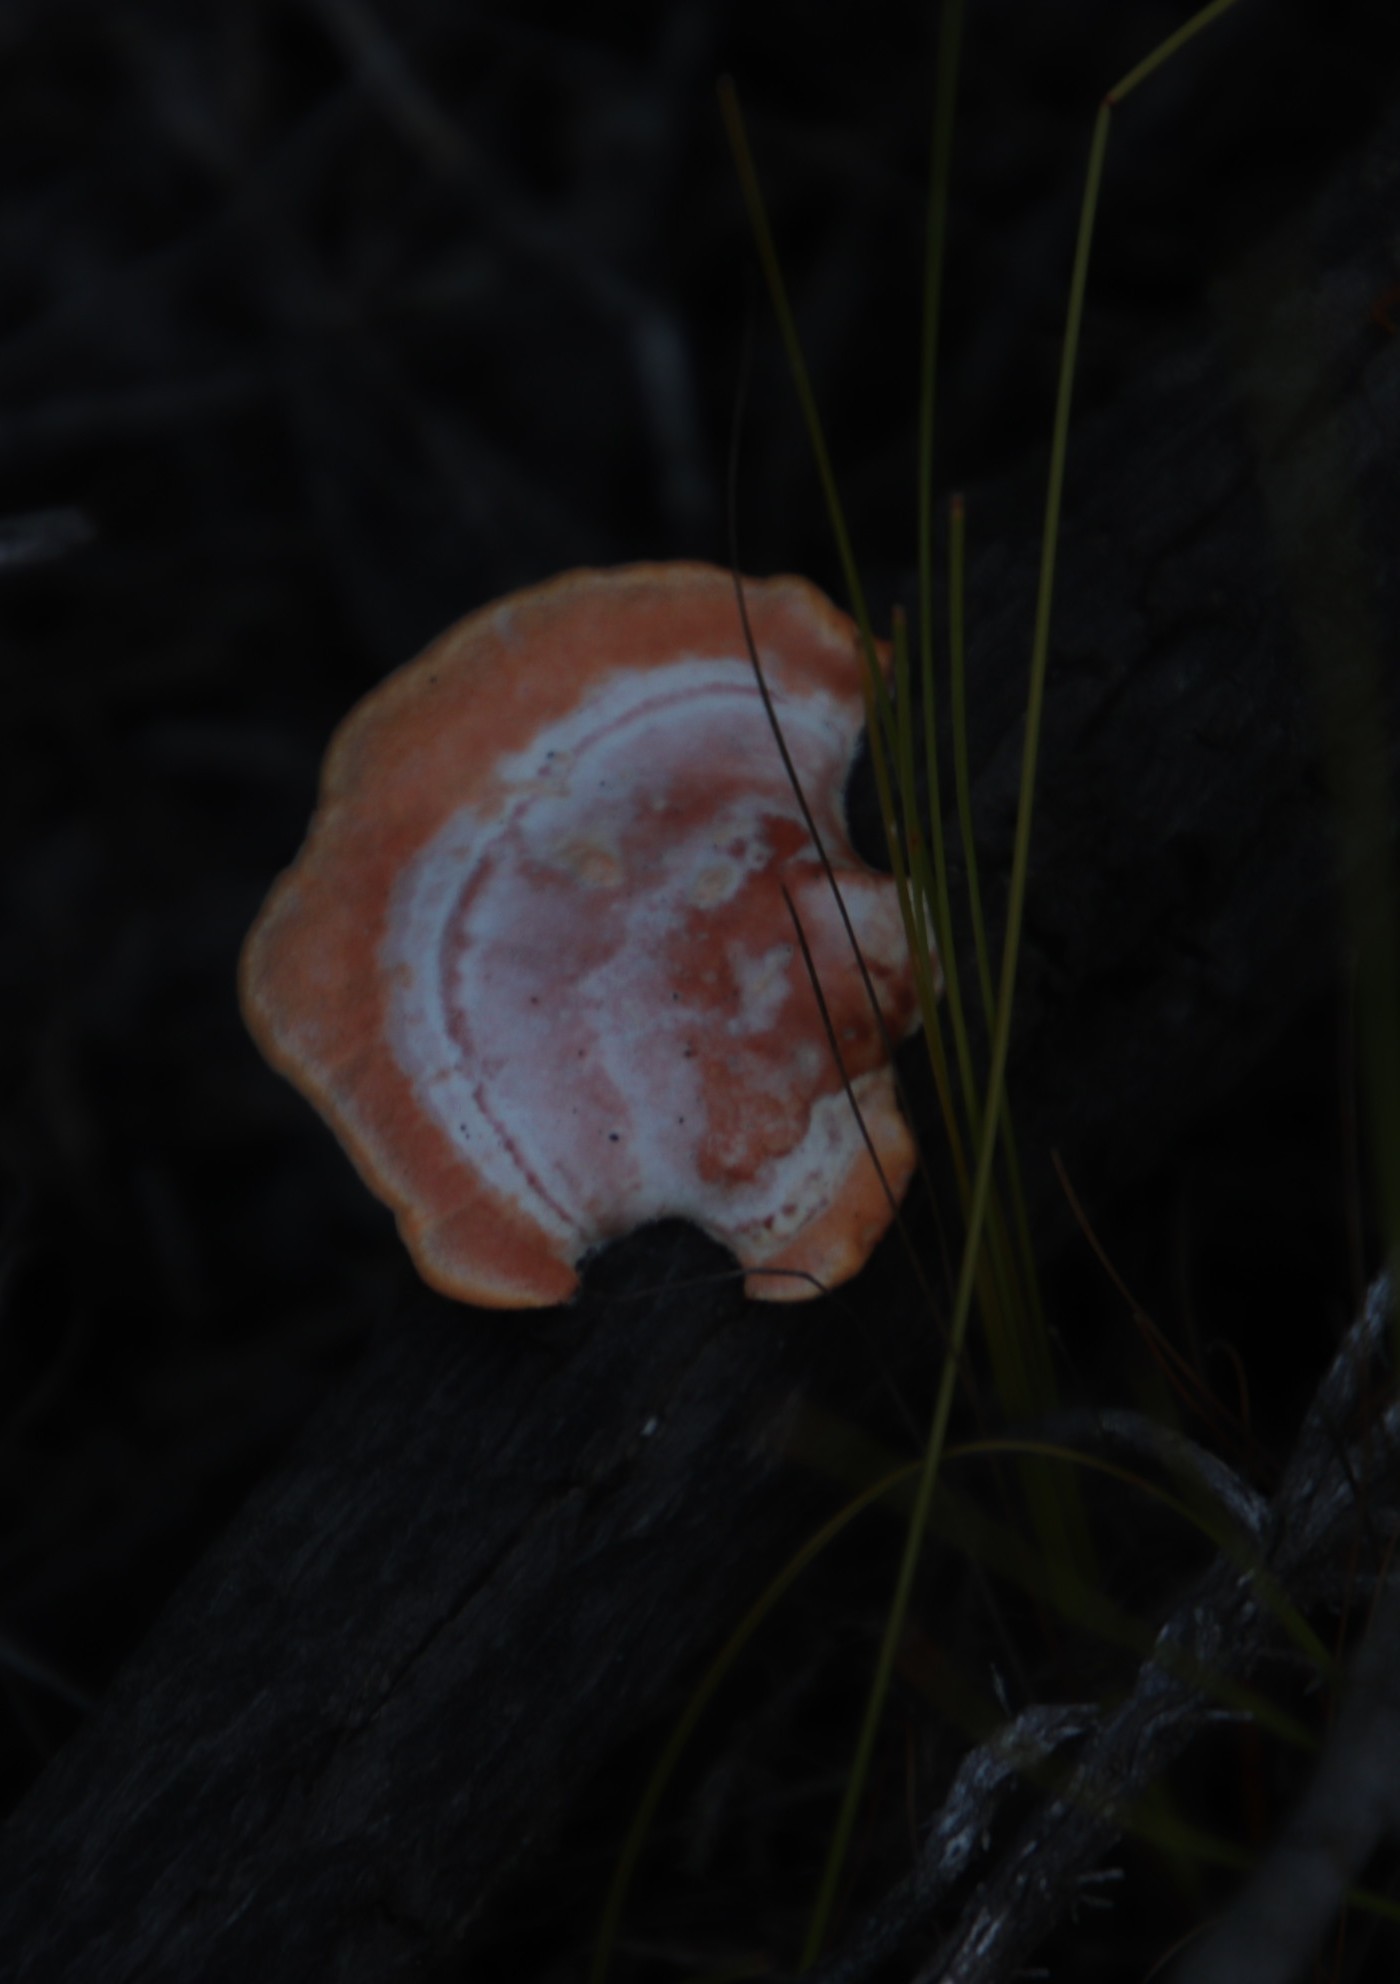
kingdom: Fungi
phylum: Basidiomycota
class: Agaricomycetes
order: Polyporales
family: Polyporaceae
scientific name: Polyporaceae
